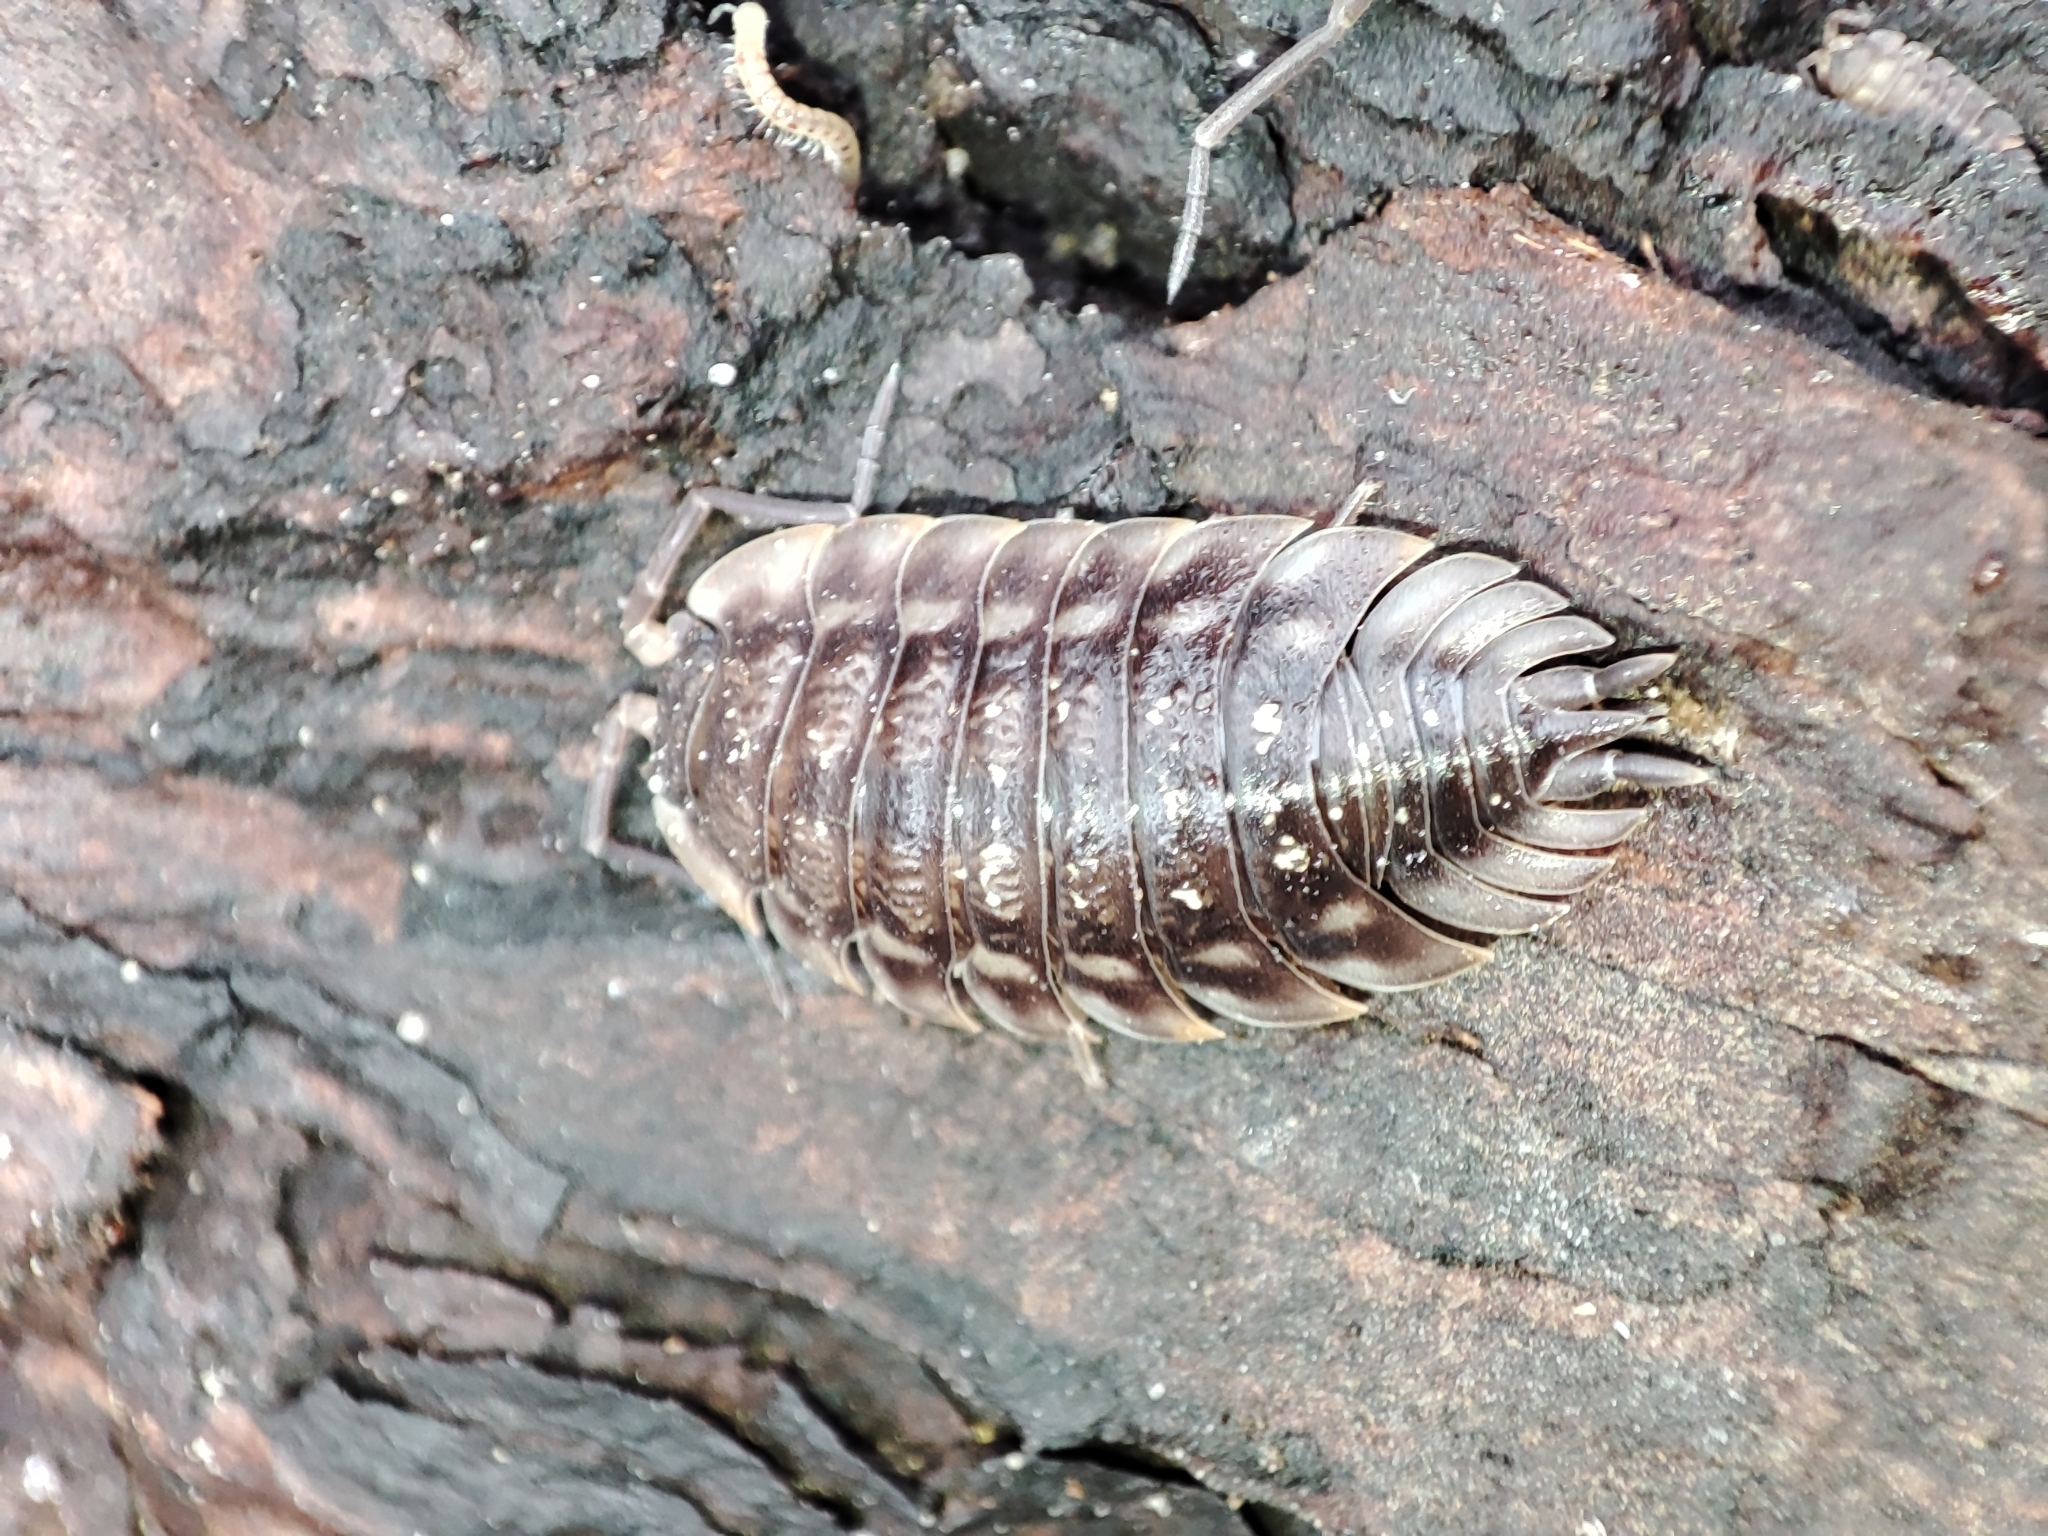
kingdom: Animalia
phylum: Arthropoda
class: Malacostraca
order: Isopoda
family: Oniscidae
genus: Oniscus
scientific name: Oniscus asellus
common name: Common shiny woodlouse
